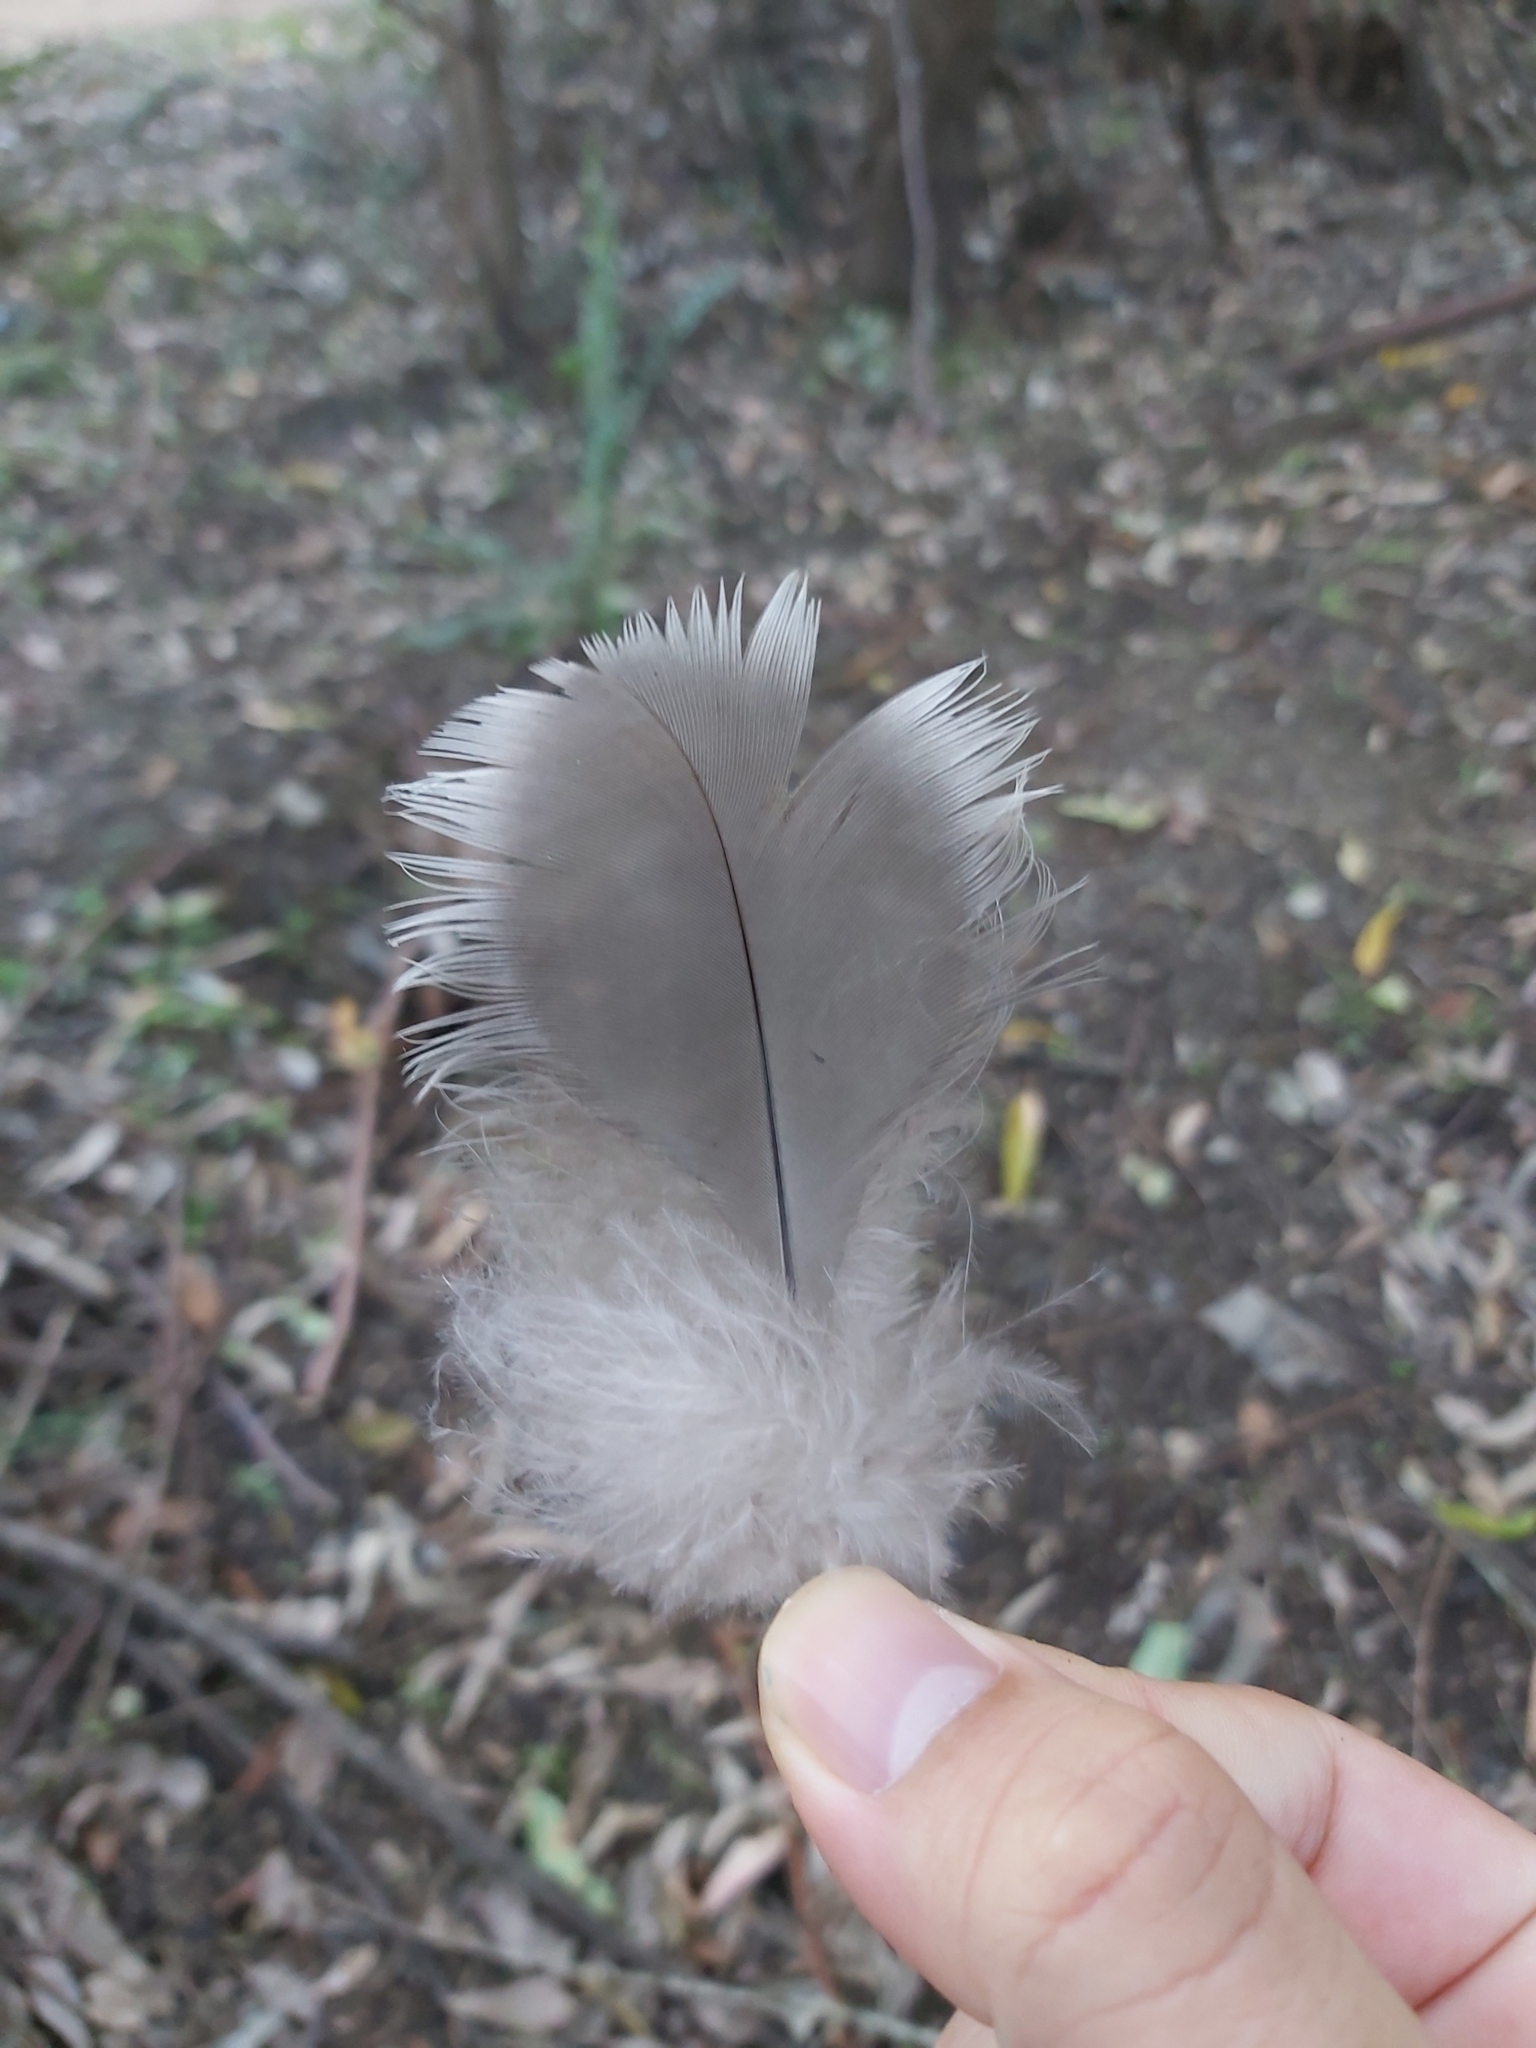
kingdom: Animalia
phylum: Chordata
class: Aves
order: Anseriformes
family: Anatidae
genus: Chenonetta
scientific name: Chenonetta jubata
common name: Maned duck
